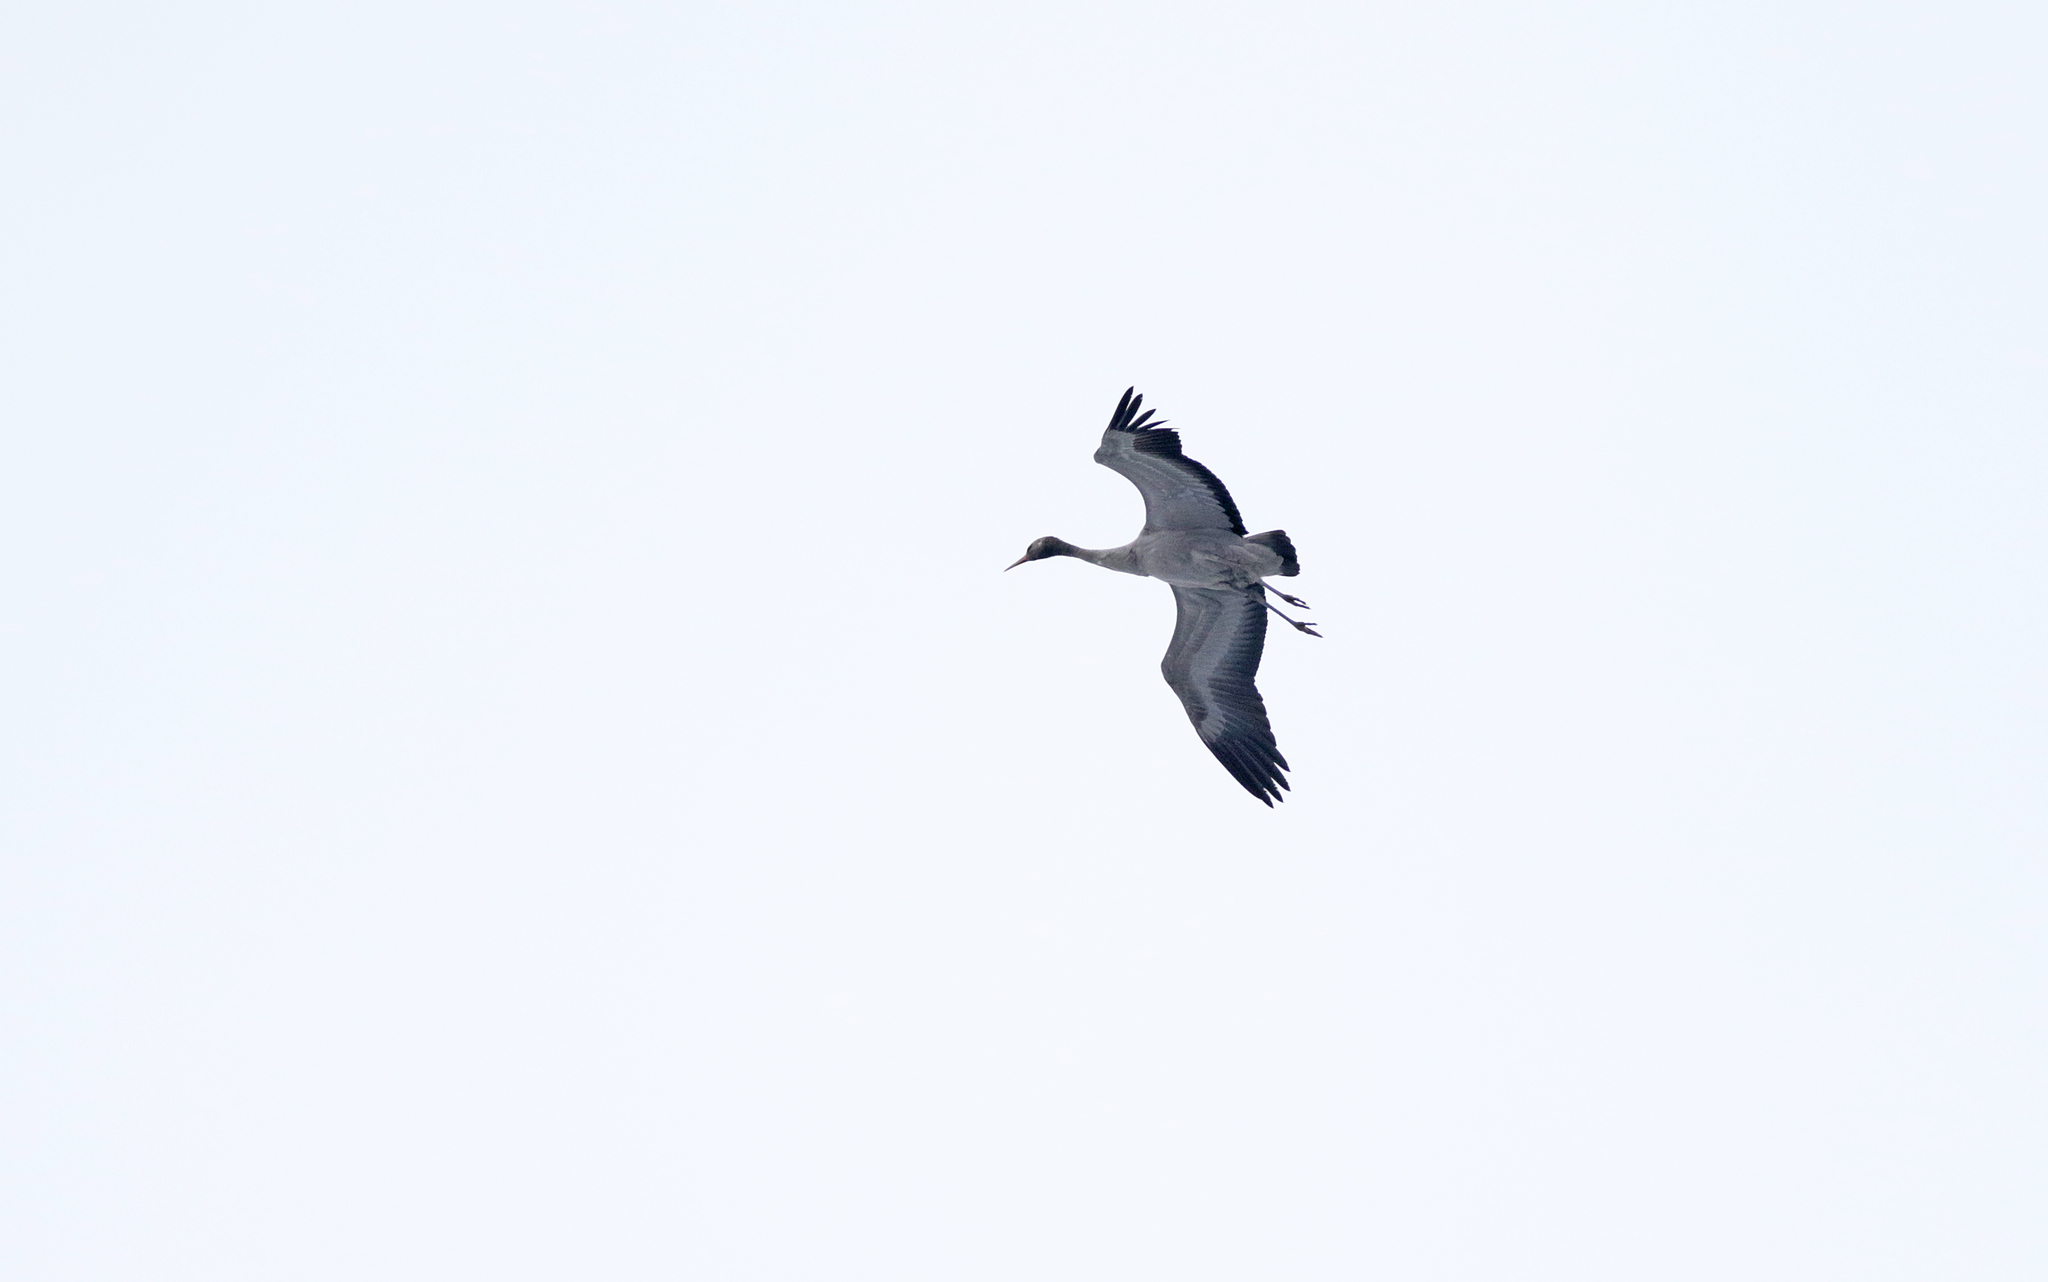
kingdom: Animalia
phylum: Chordata
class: Aves
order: Gruiformes
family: Gruidae
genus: Grus
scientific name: Grus grus
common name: Common crane
